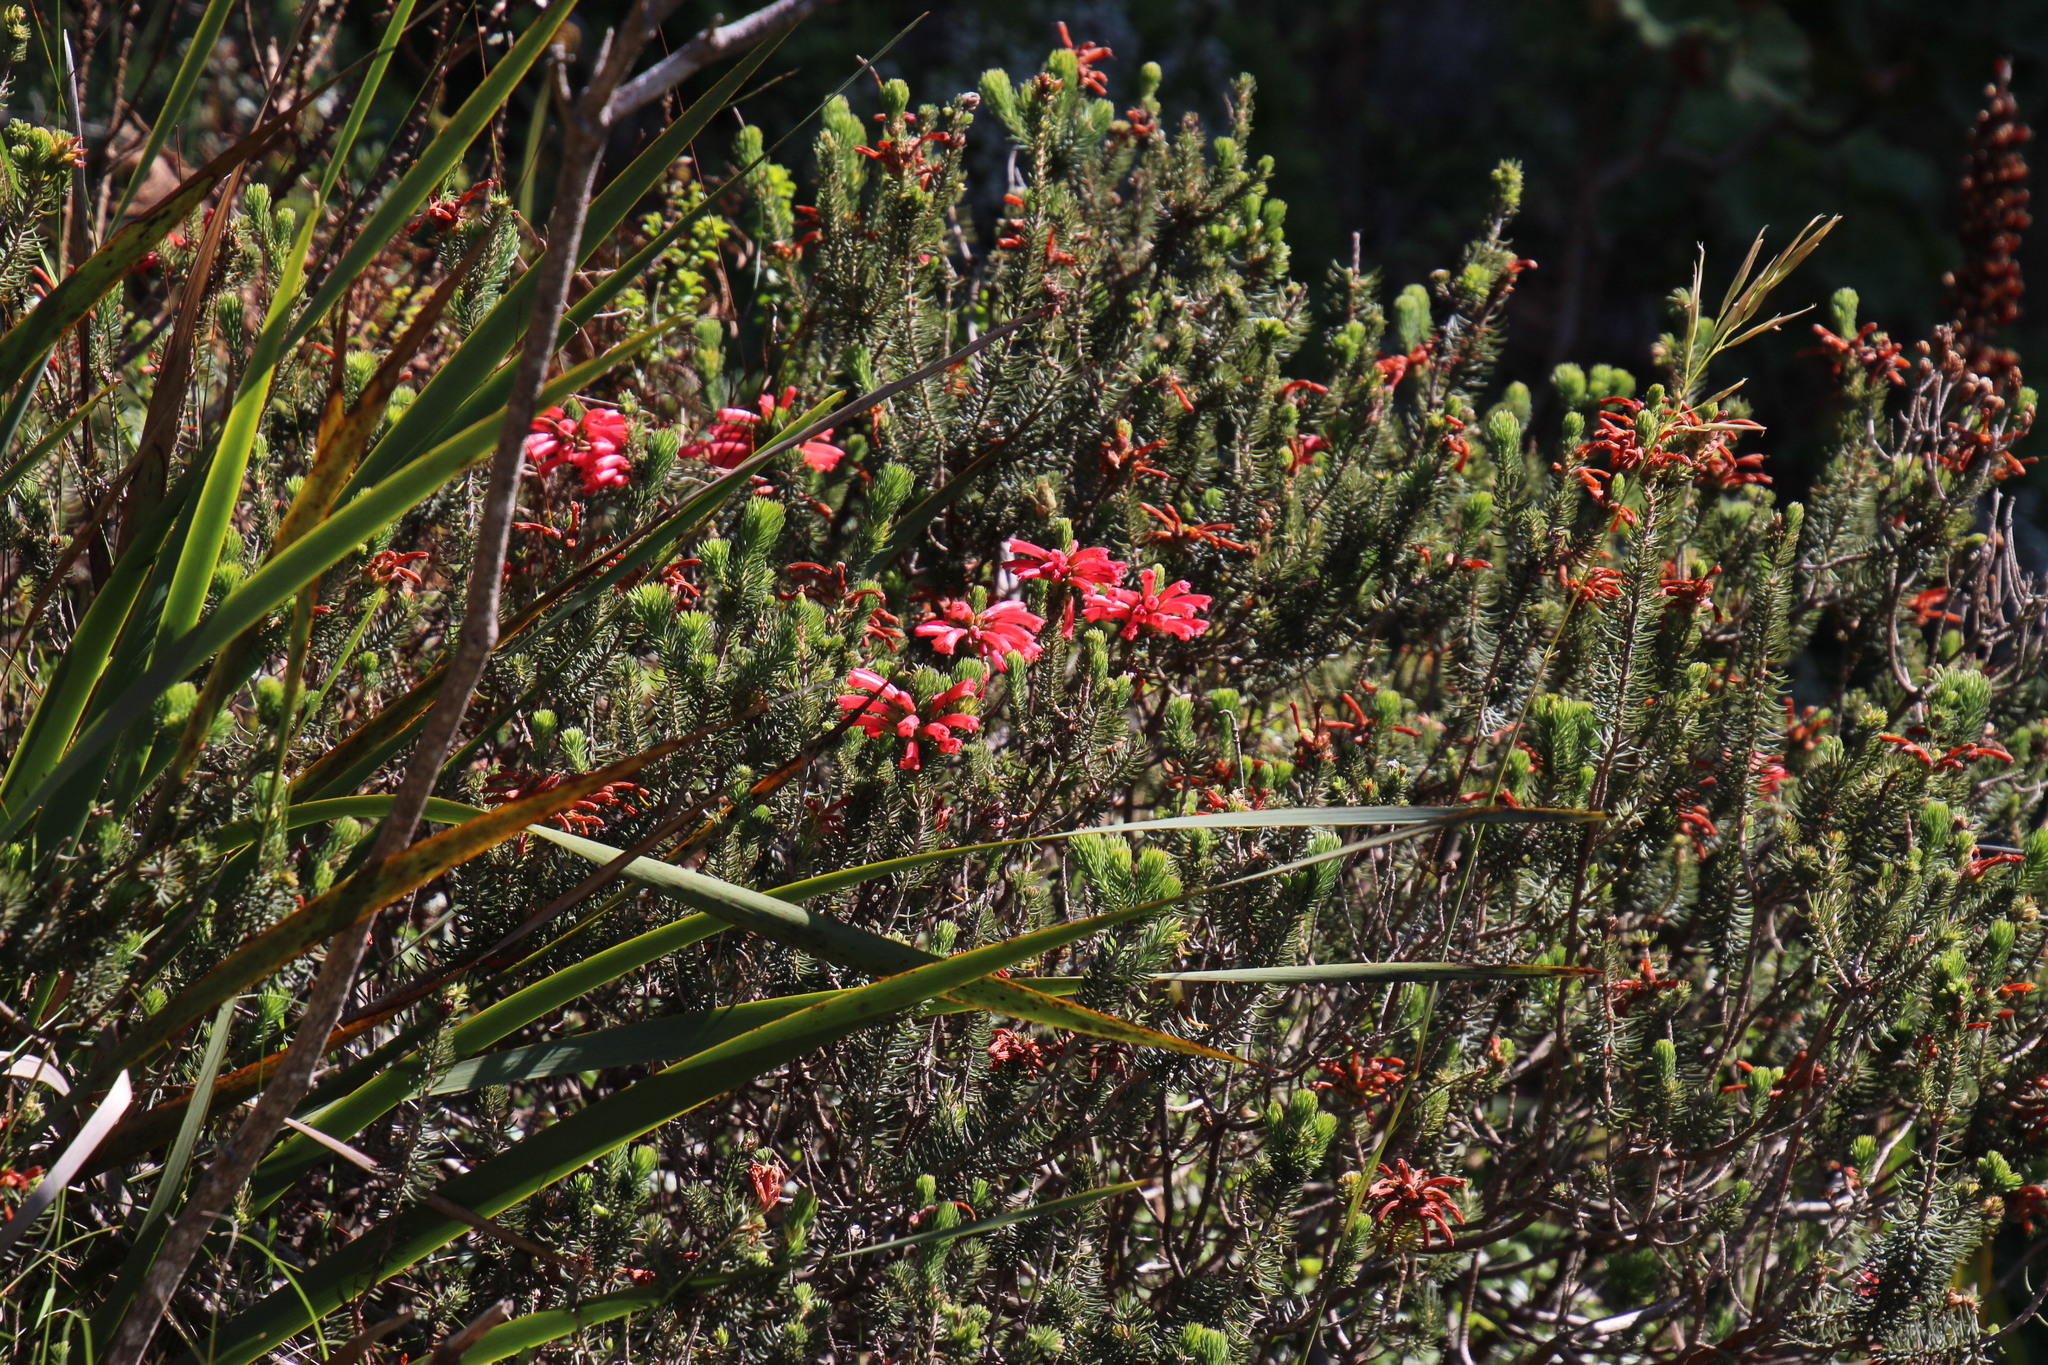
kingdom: Plantae
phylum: Tracheophyta
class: Magnoliopsida
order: Ericales
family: Ericaceae
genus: Erica
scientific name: Erica abietina
